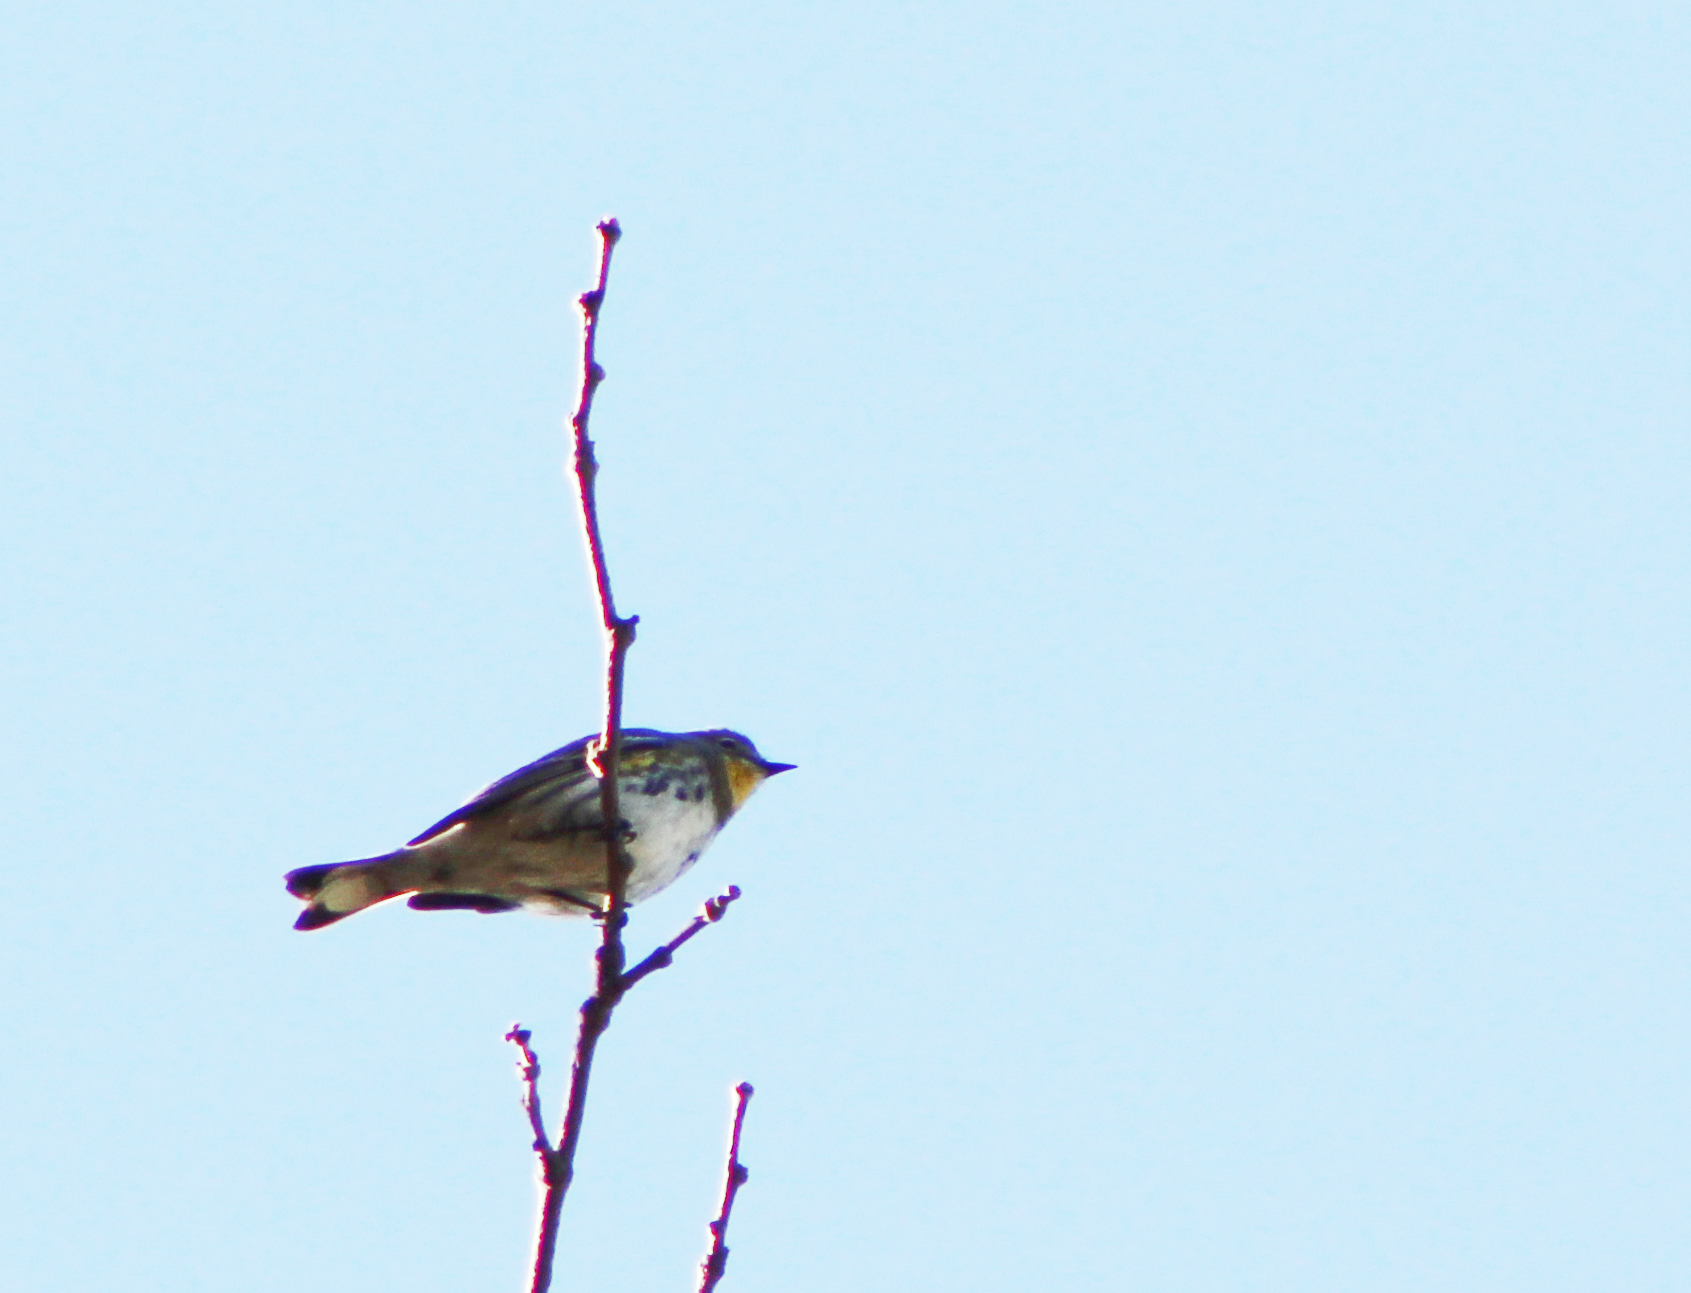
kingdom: Animalia
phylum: Chordata
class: Aves
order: Passeriformes
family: Parulidae
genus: Setophaga
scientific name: Setophaga coronata
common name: Myrtle warbler
